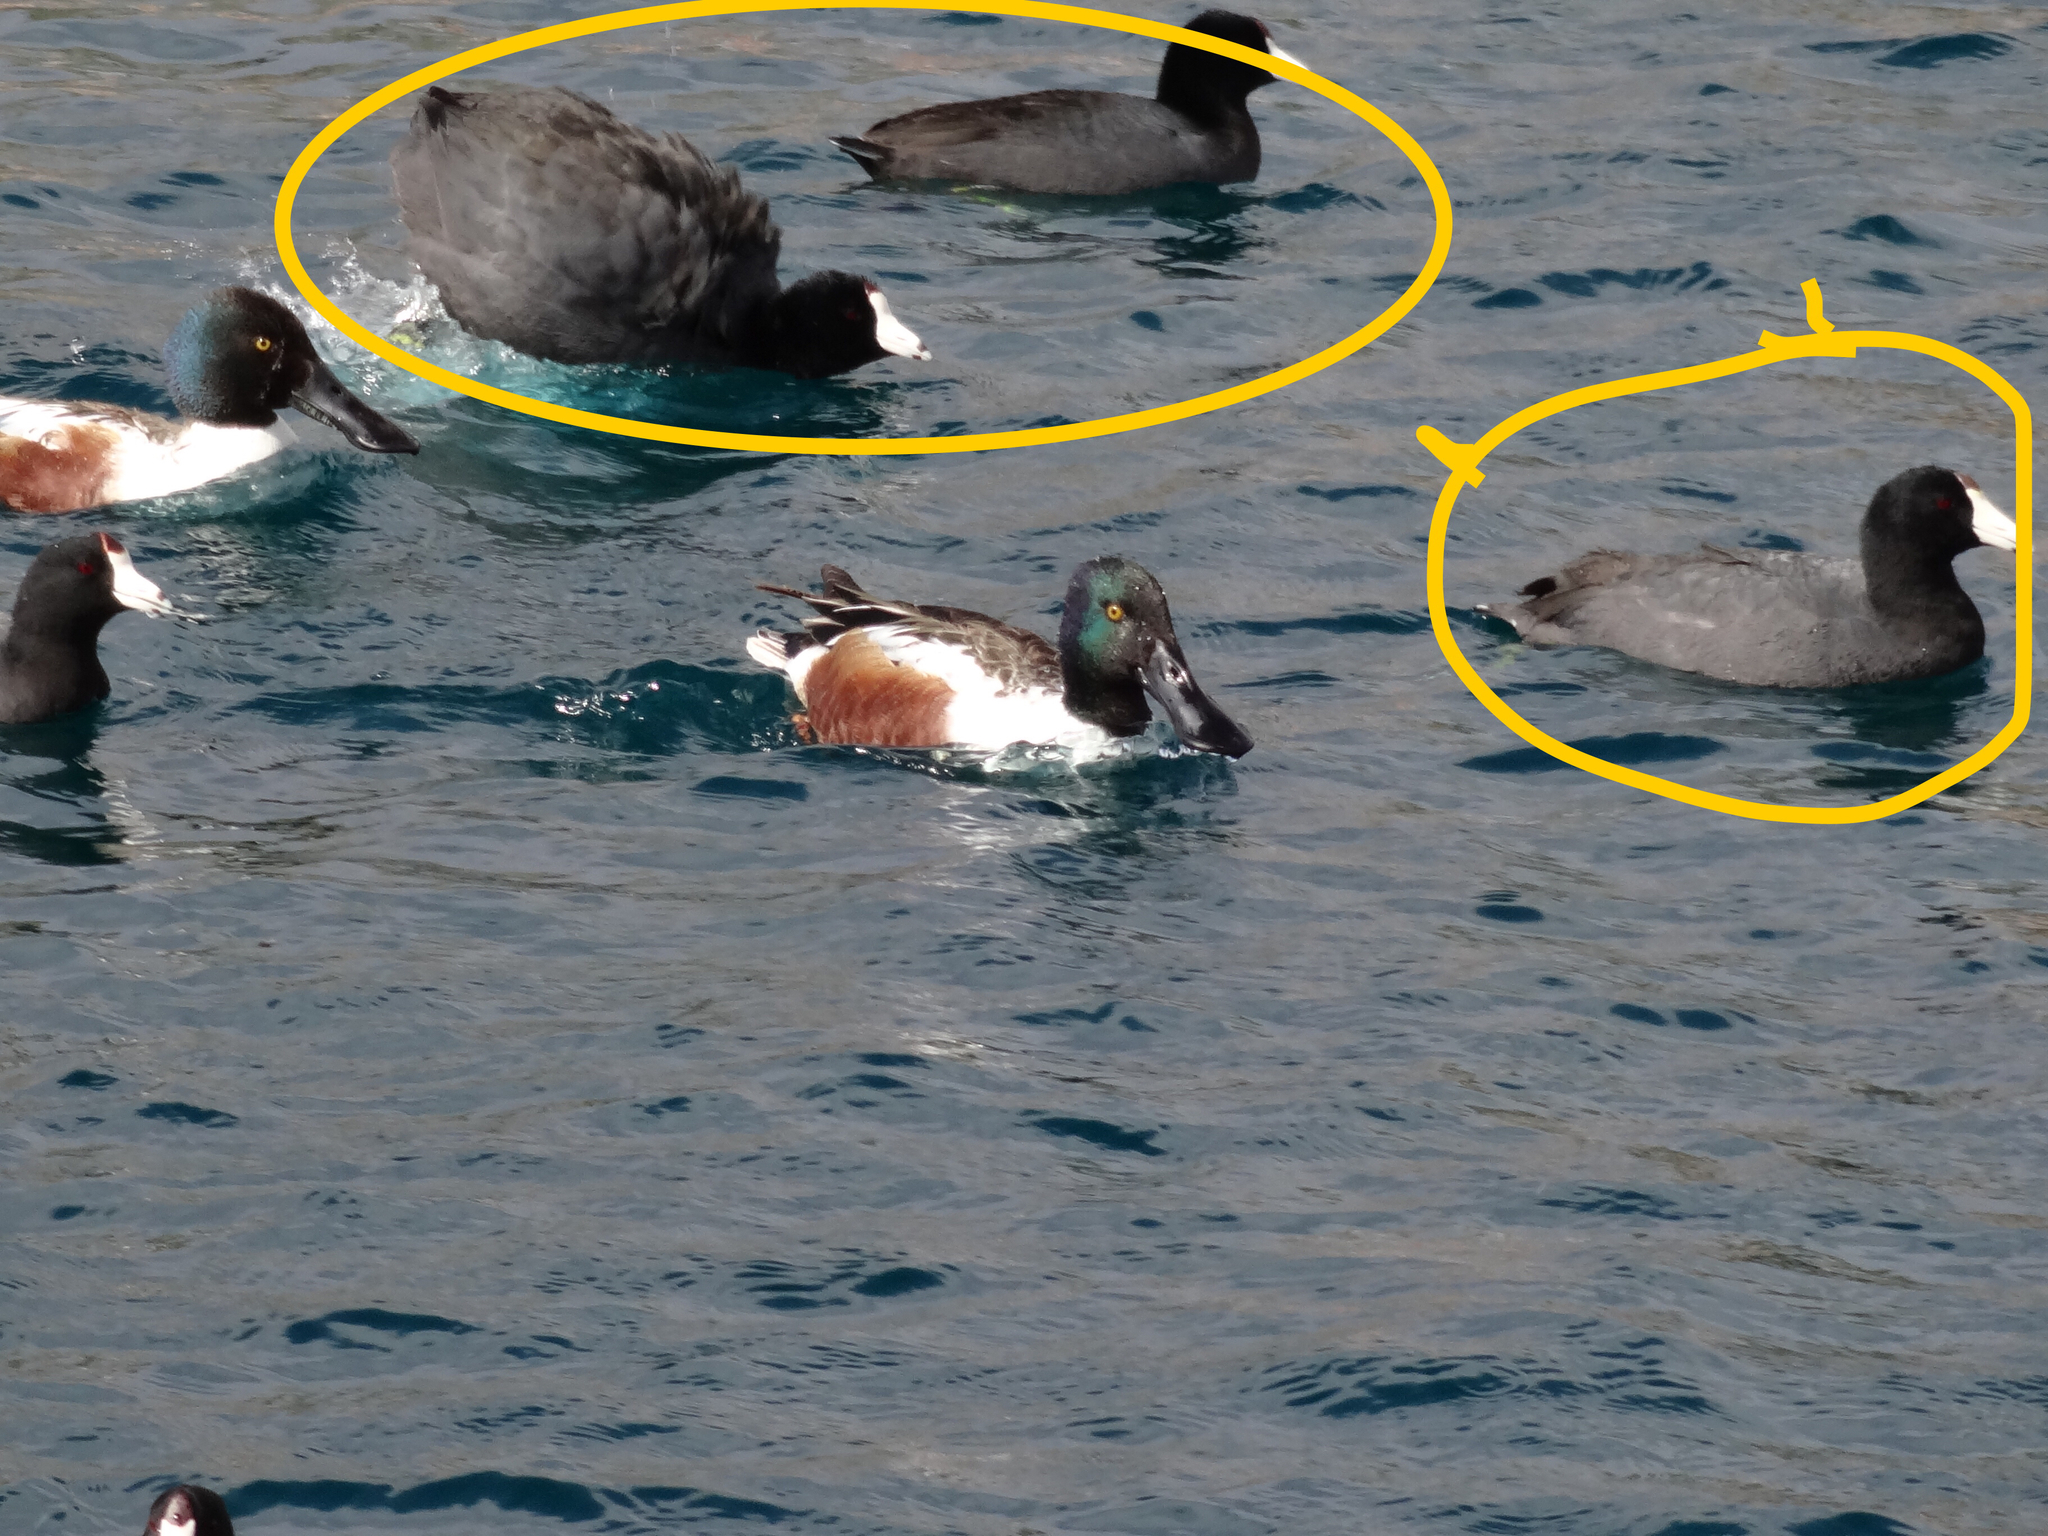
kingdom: Animalia
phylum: Chordata
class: Aves
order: Gruiformes
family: Rallidae
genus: Fulica
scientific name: Fulica americana
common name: American coot
